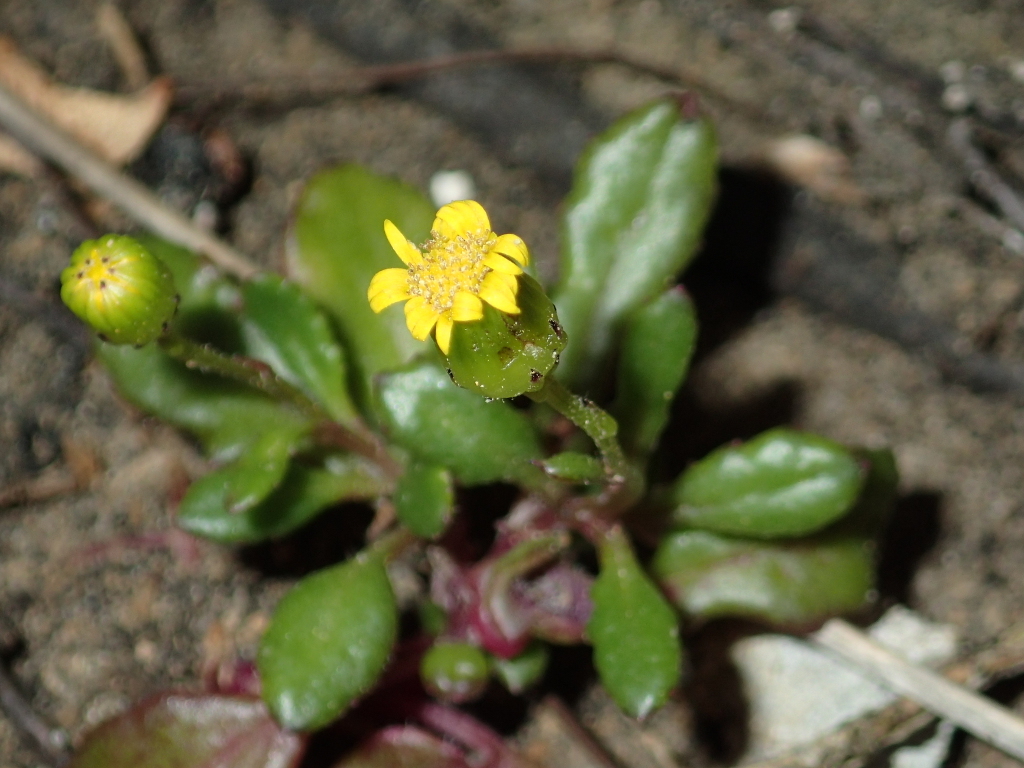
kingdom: Plantae
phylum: Tracheophyta
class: Magnoliopsida
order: Asterales
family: Asteraceae
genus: Senecio
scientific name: Senecio lautus
